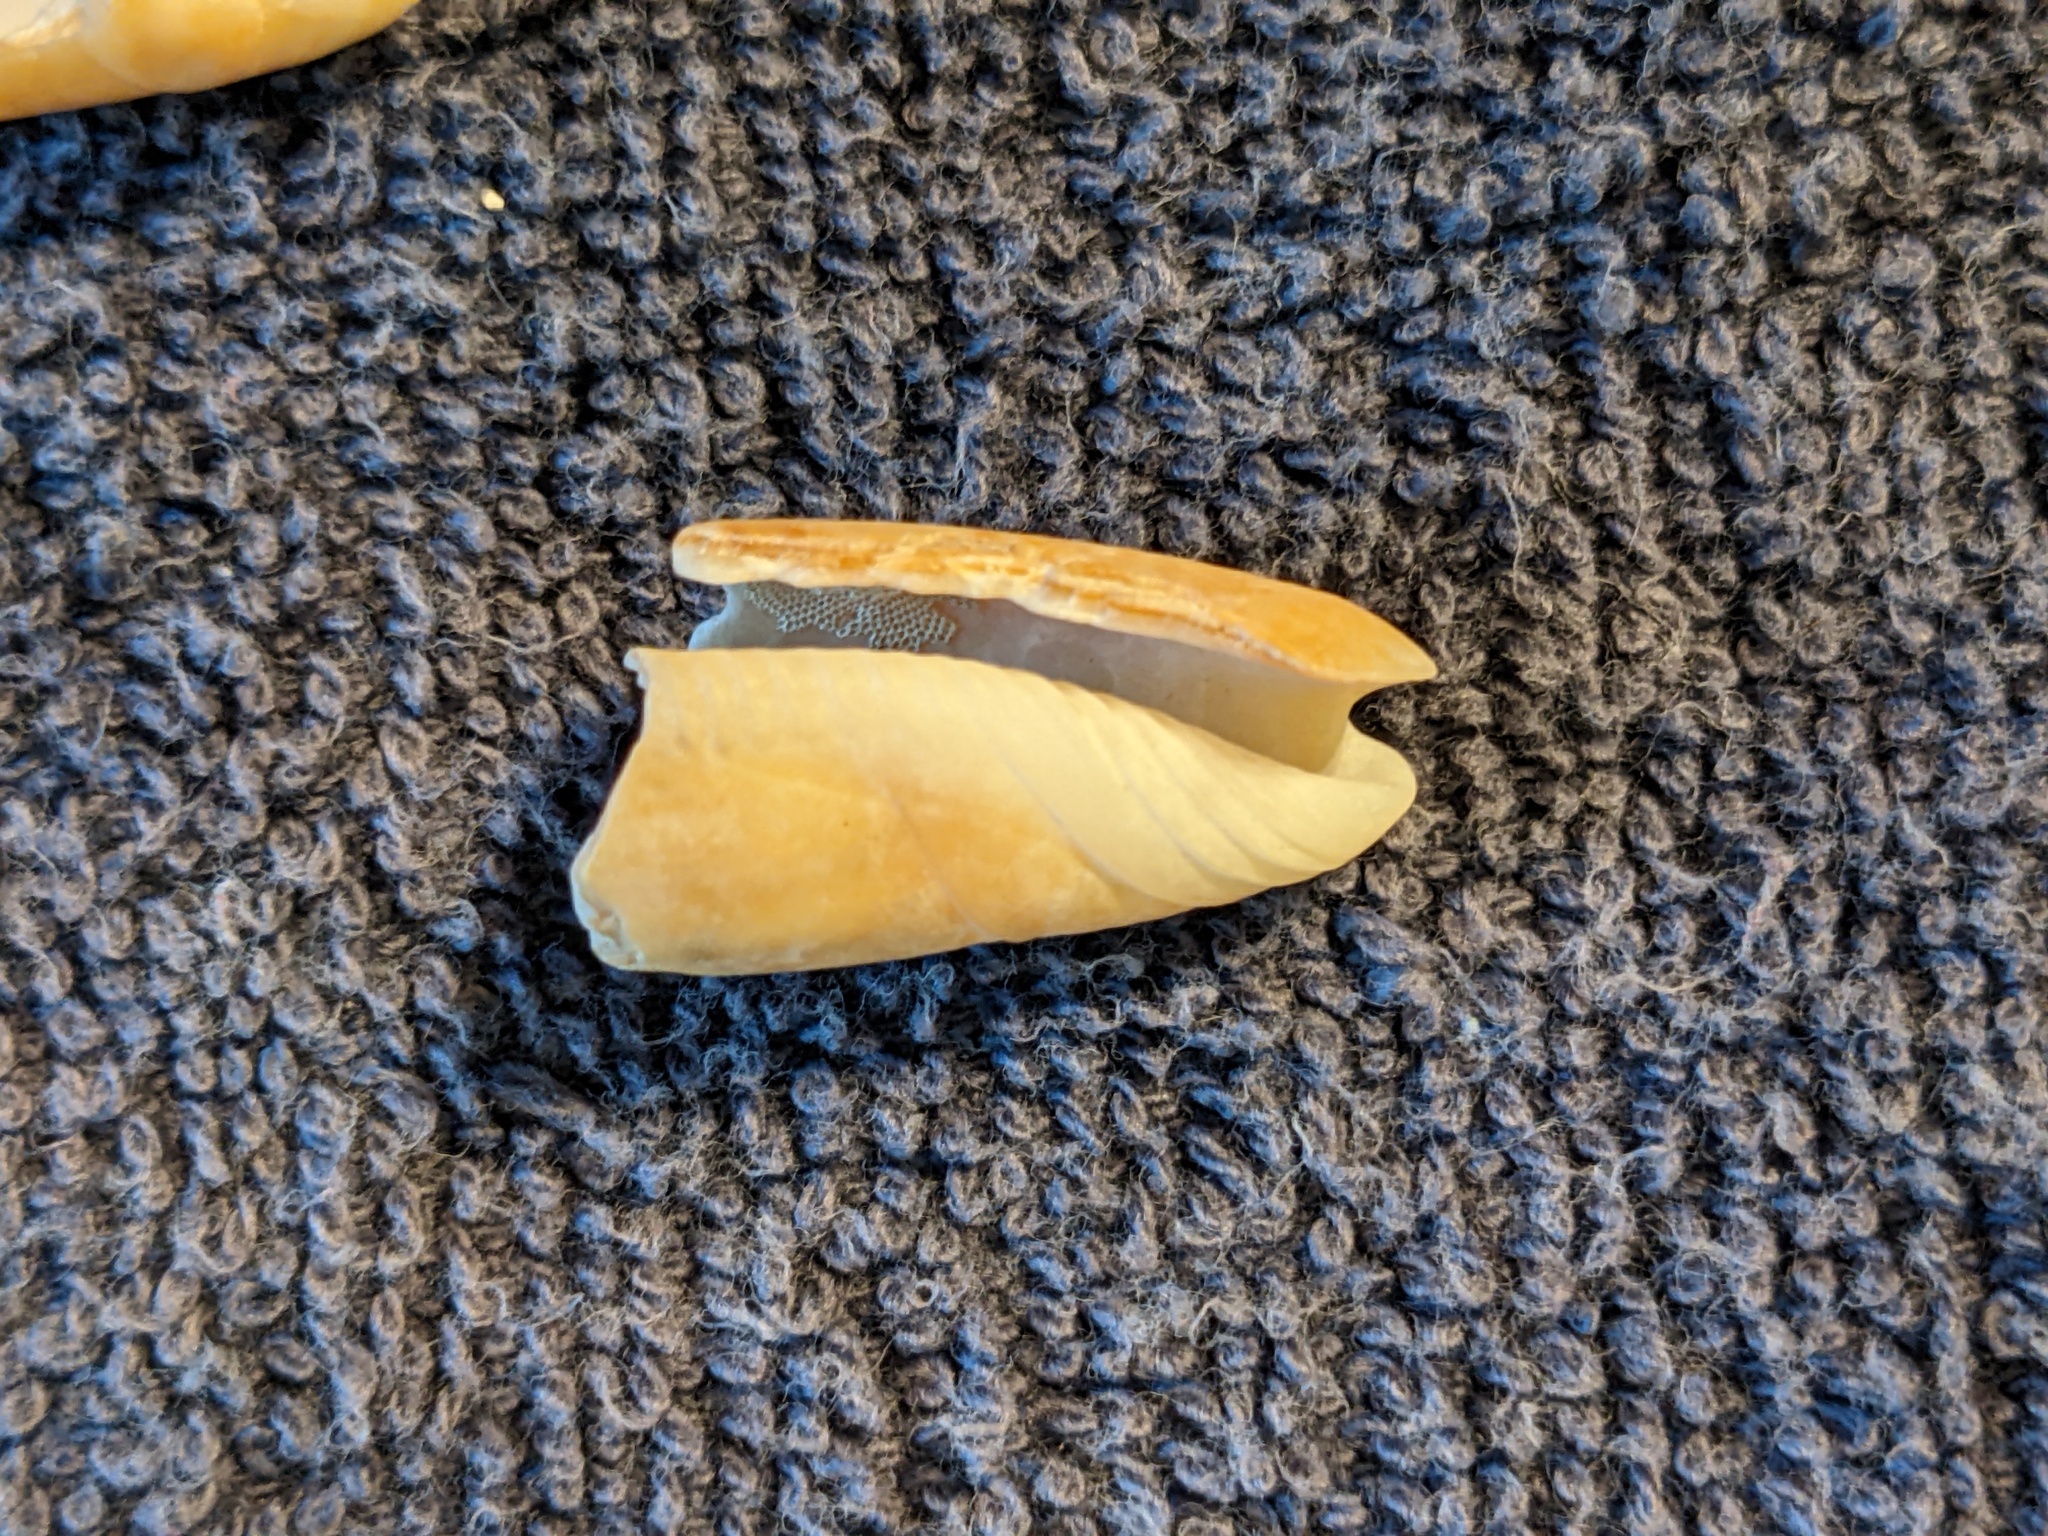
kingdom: Animalia
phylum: Mollusca
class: Gastropoda
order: Neogastropoda
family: Olividae
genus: Oliva
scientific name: Oliva sayana
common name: Lettered olive
